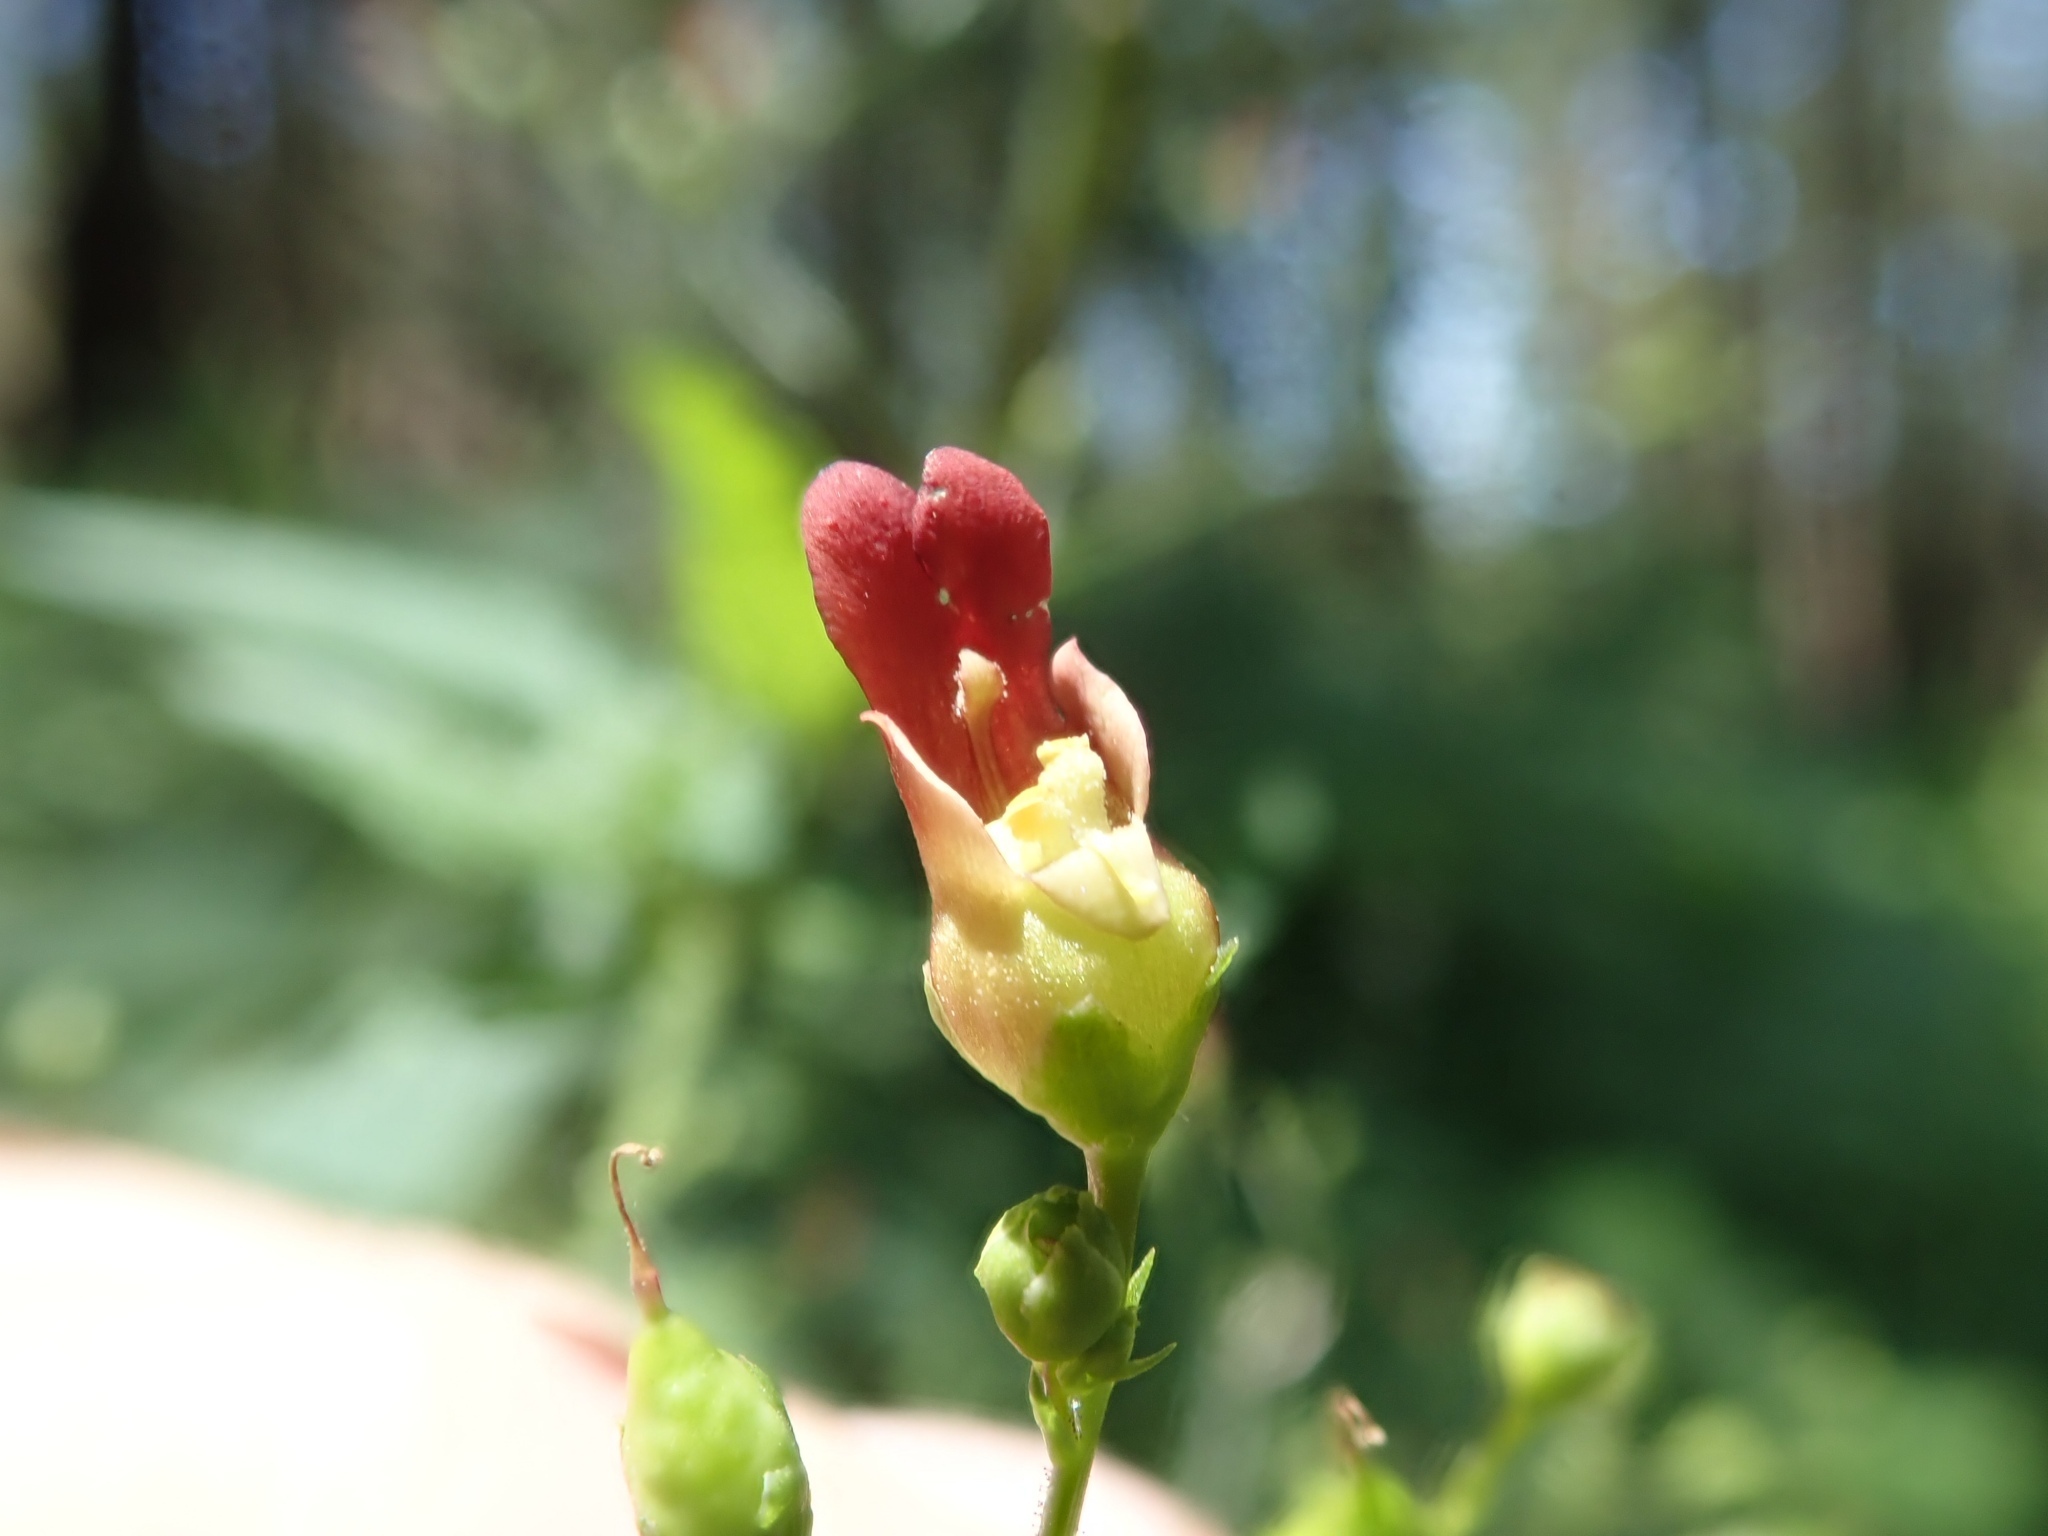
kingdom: Plantae
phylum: Tracheophyta
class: Magnoliopsida
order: Lamiales
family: Scrophulariaceae
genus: Scrophularia
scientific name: Scrophularia californica
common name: California figwort
